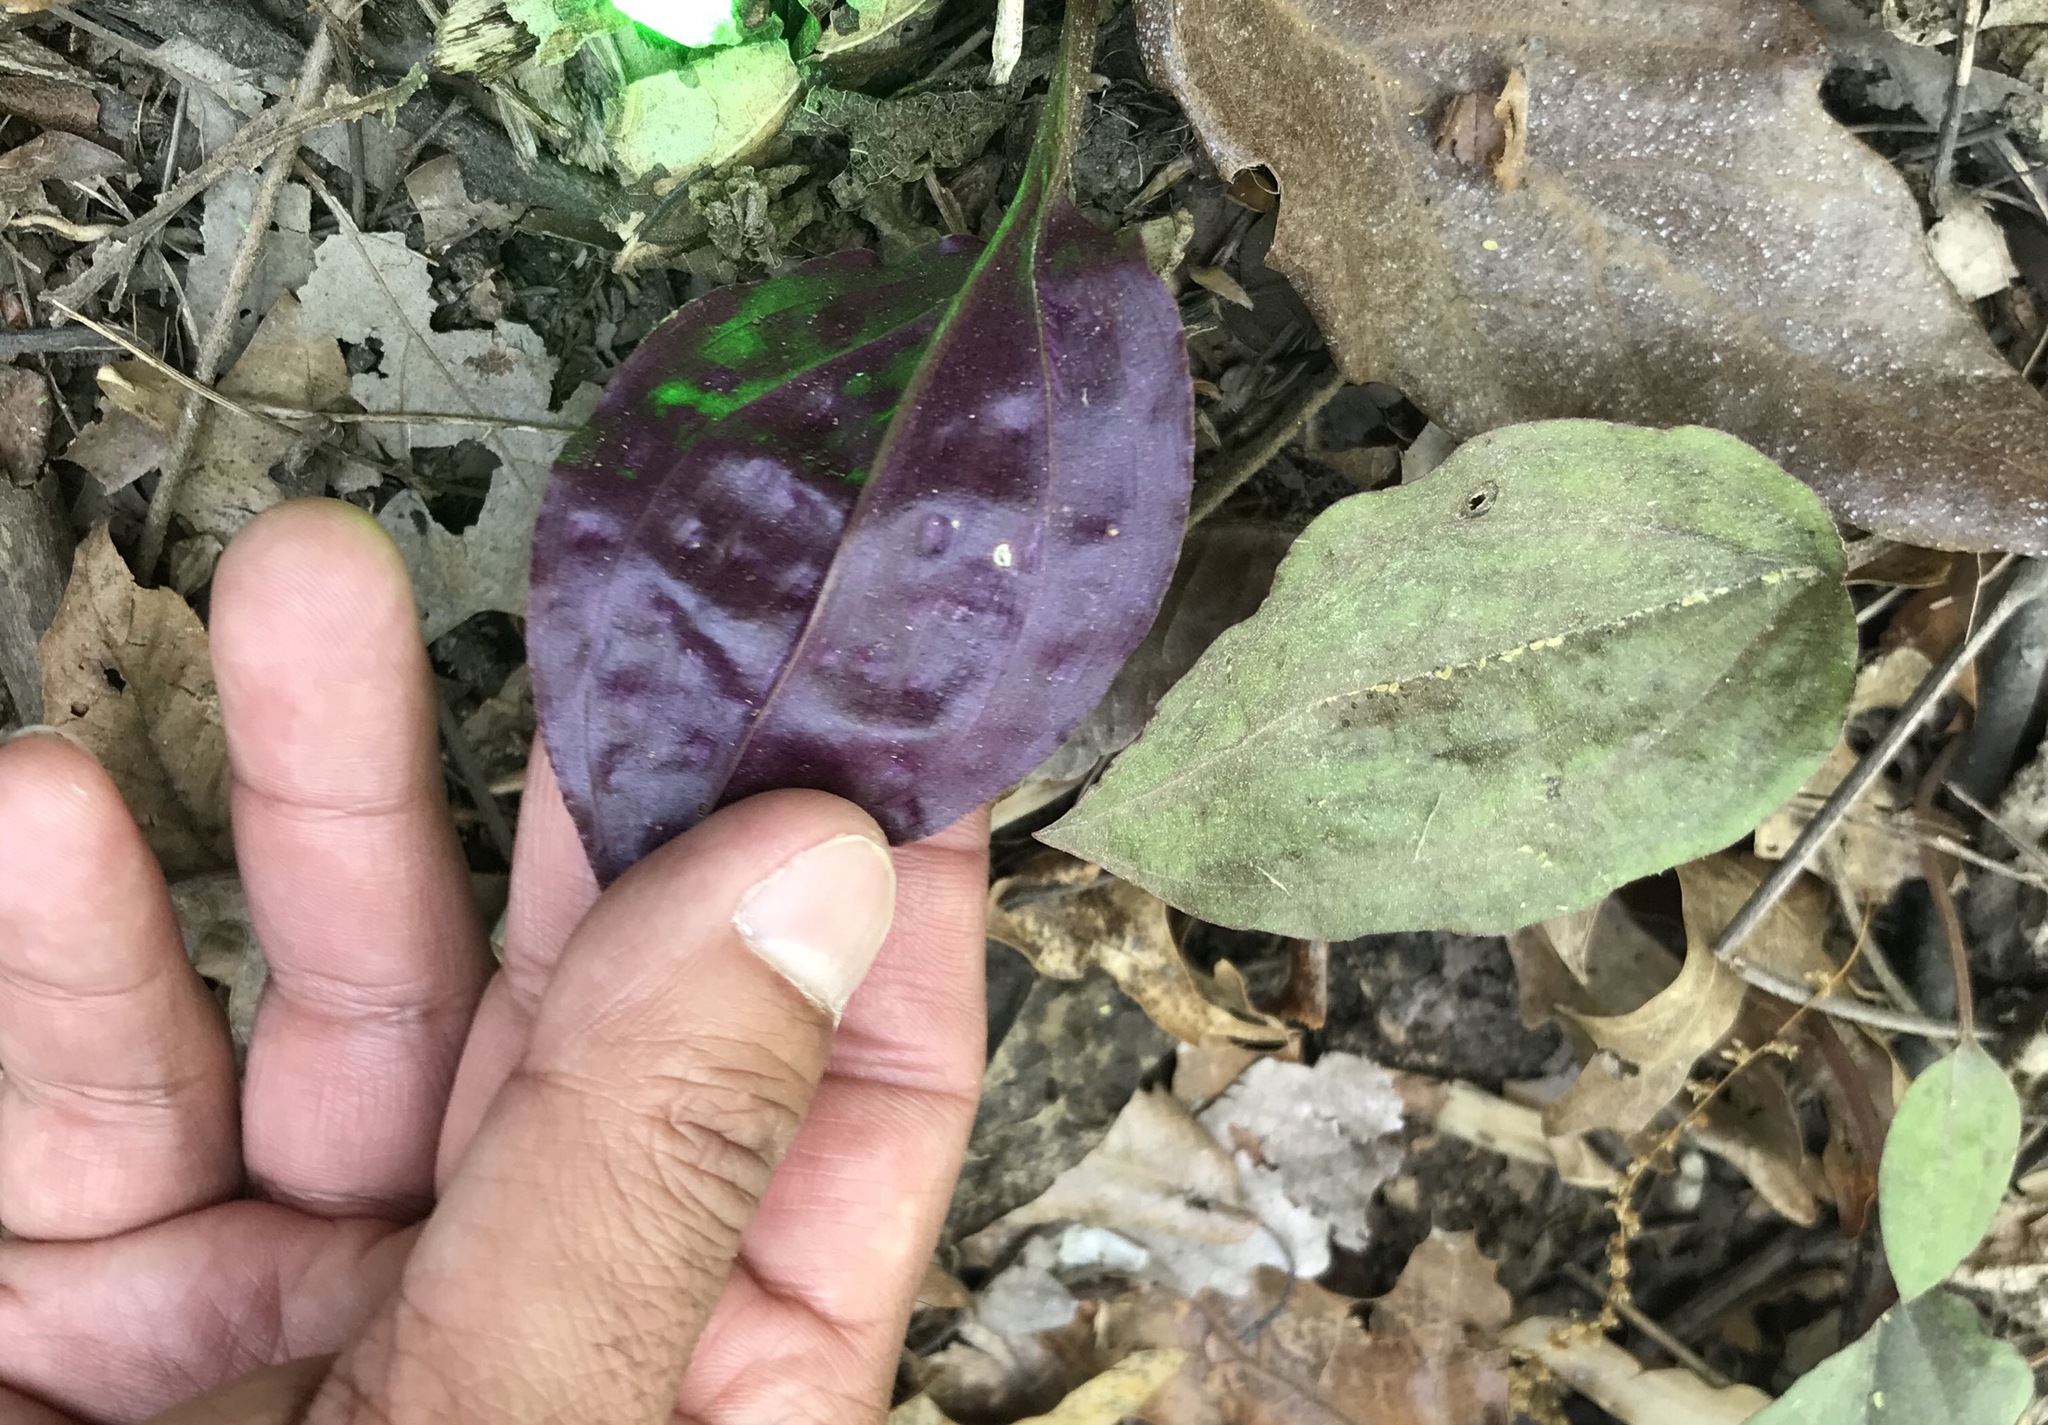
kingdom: Plantae
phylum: Tracheophyta
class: Liliopsida
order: Asparagales
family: Orchidaceae
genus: Tipularia
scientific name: Tipularia discolor
